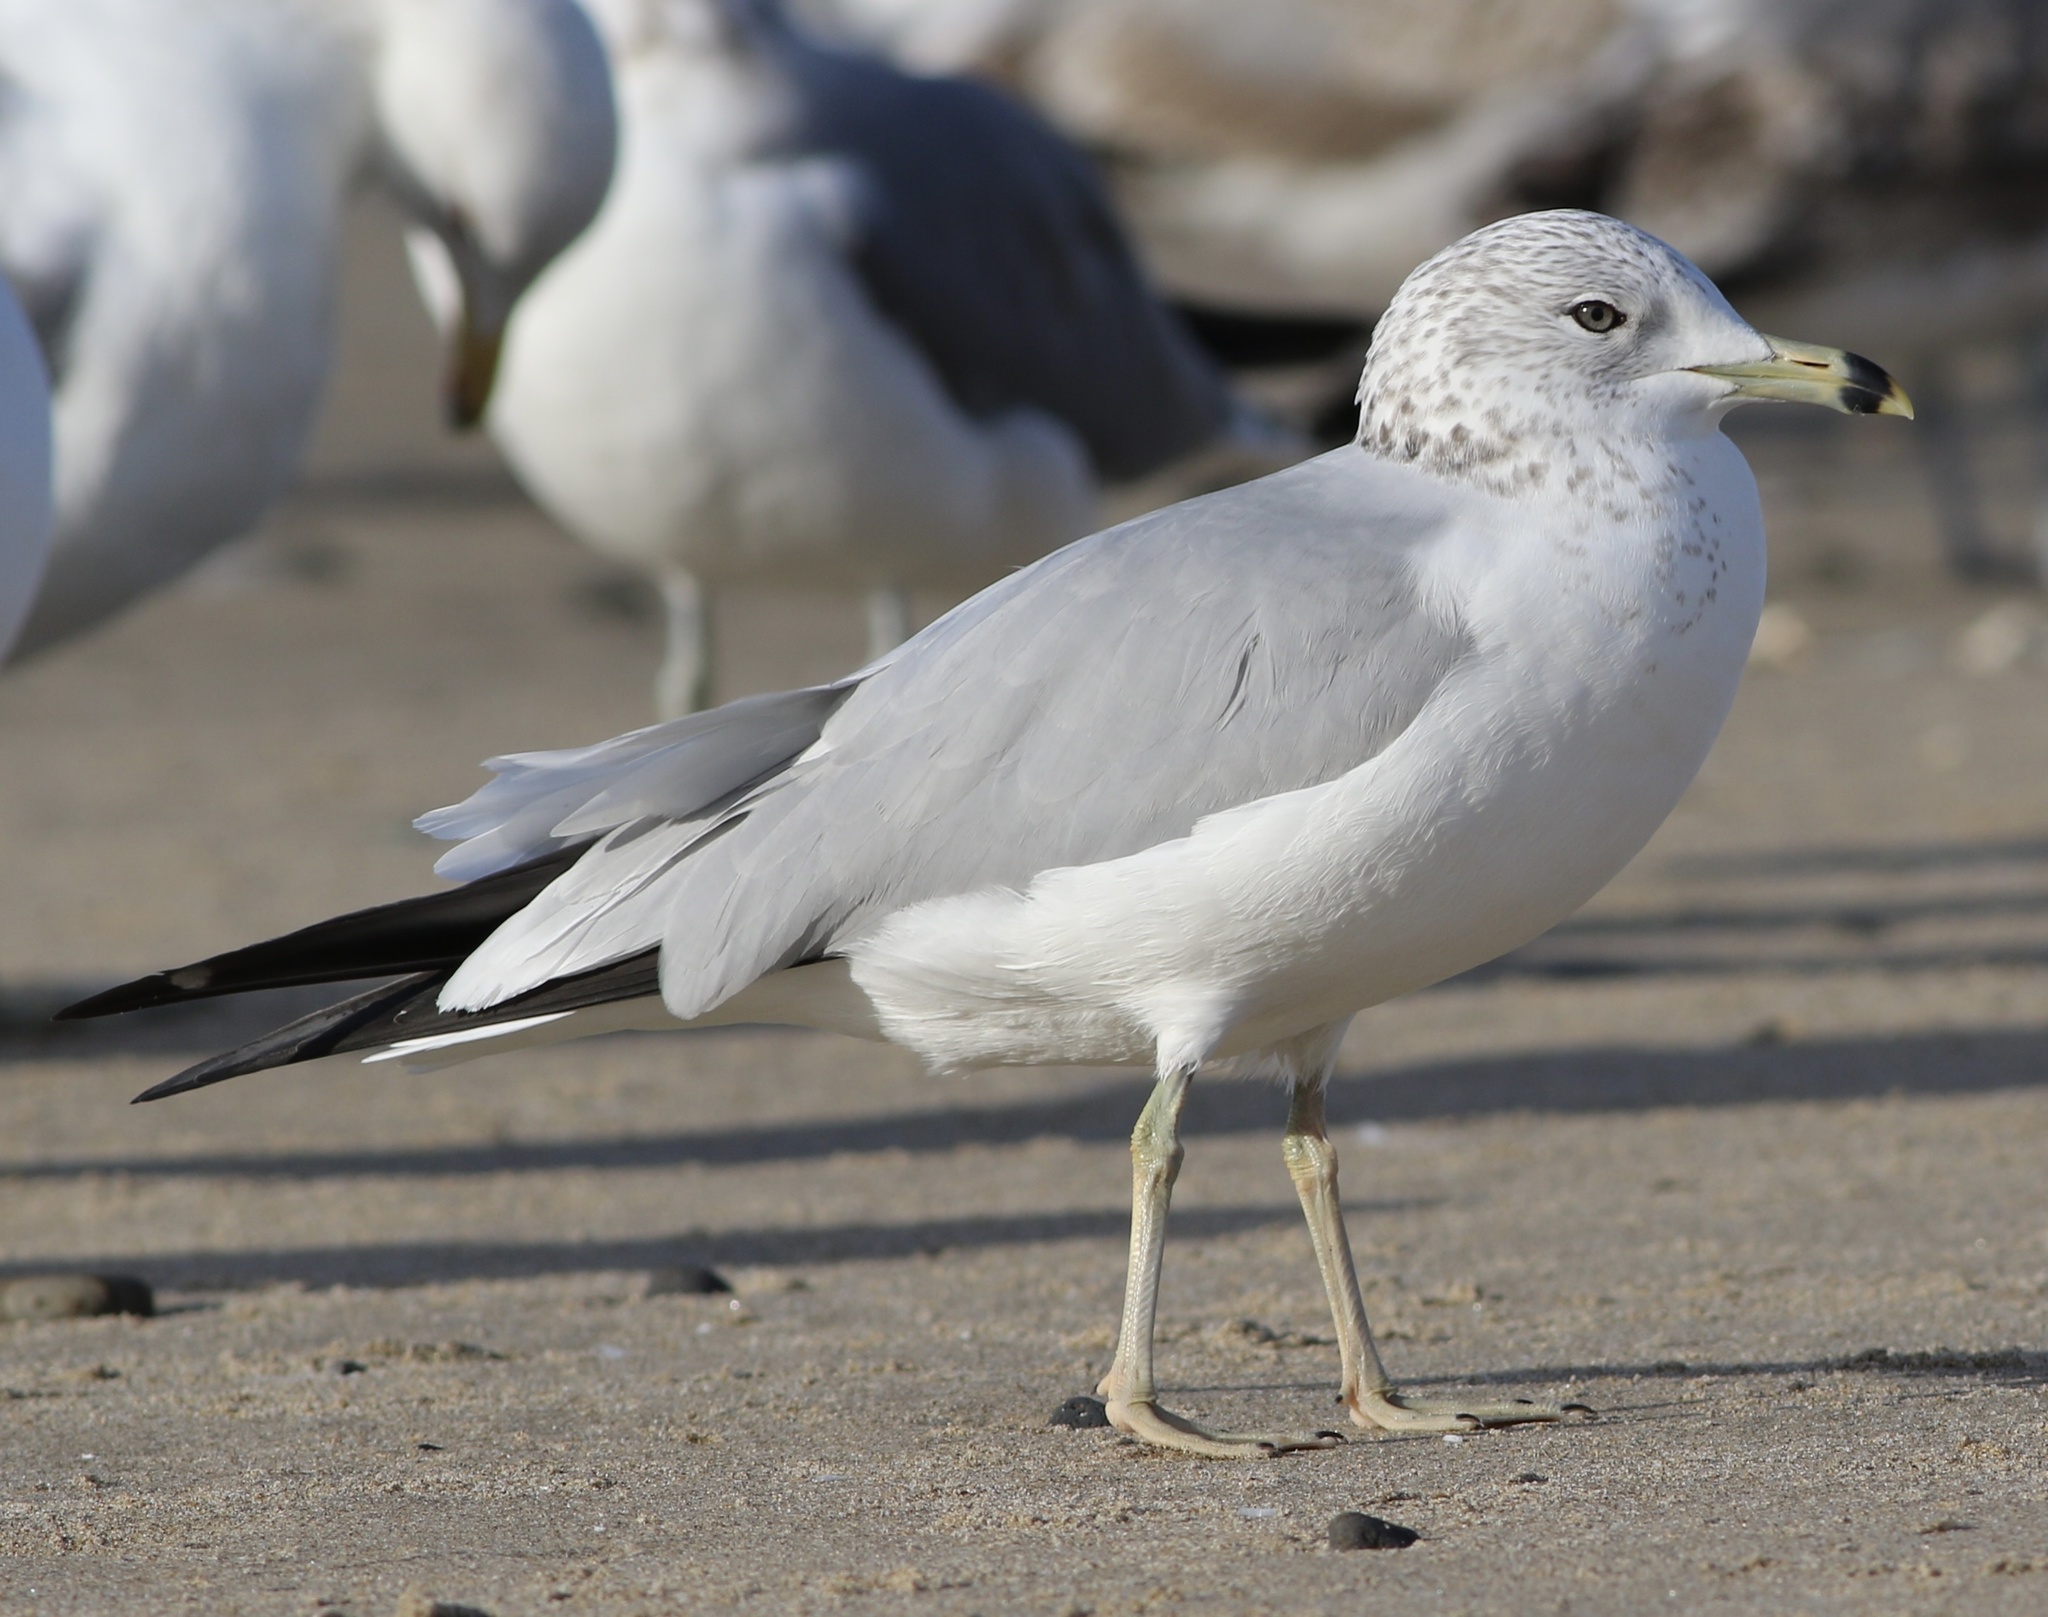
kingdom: Animalia
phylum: Chordata
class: Aves
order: Charadriiformes
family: Laridae
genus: Larus
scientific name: Larus delawarensis
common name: Ring-billed gull
